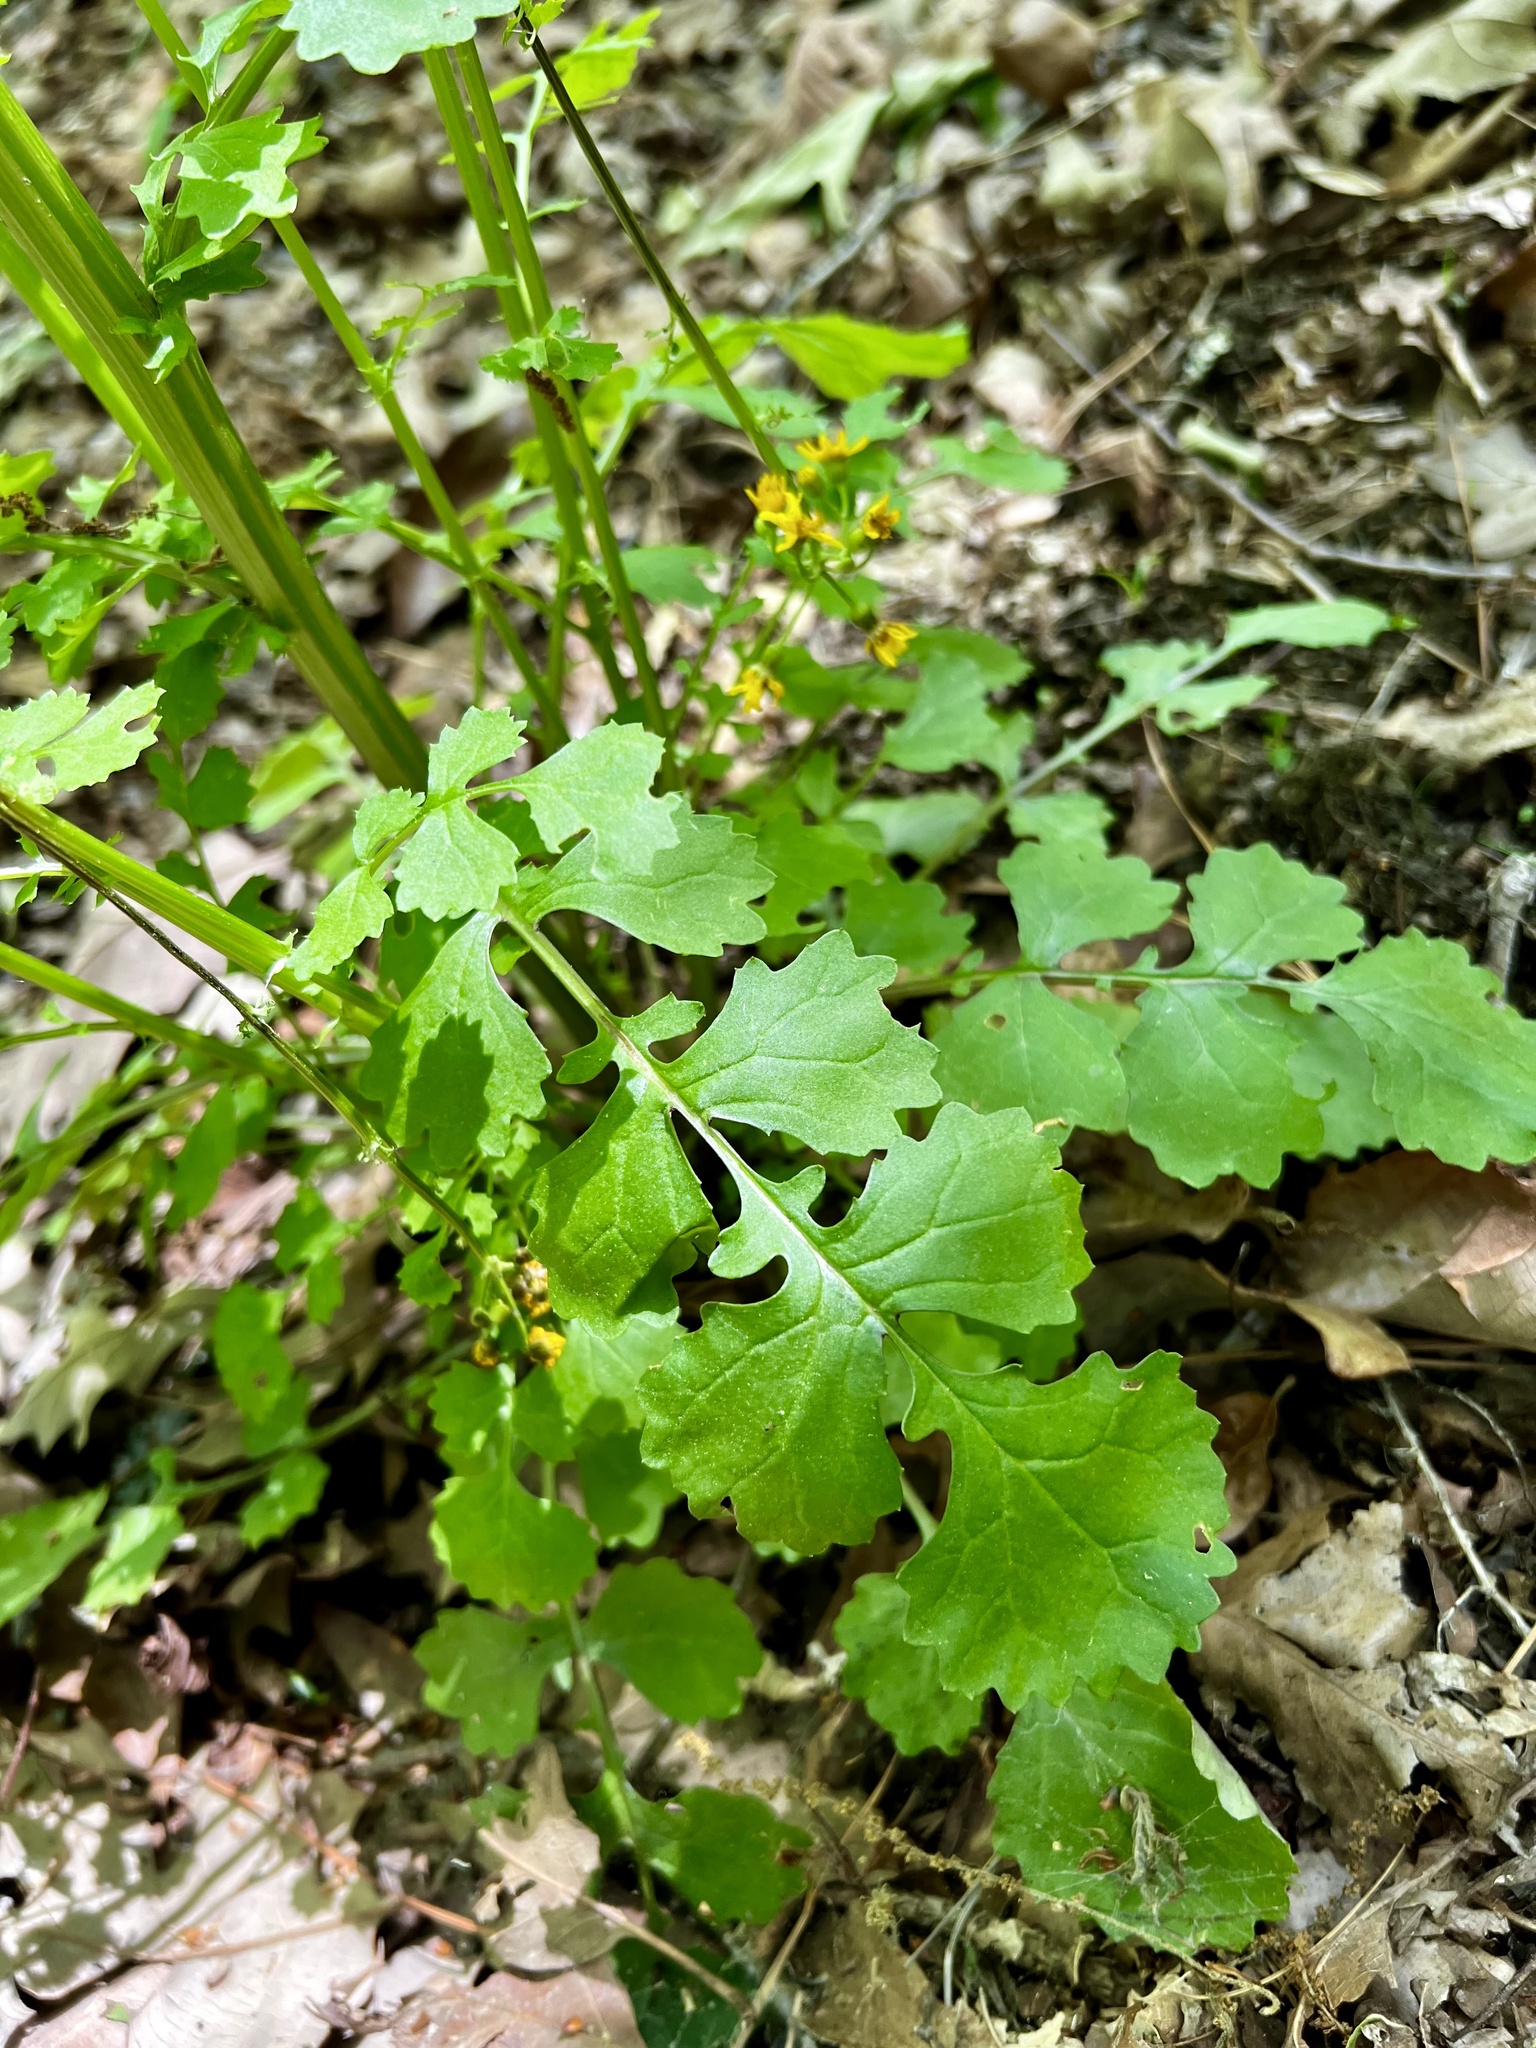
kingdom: Plantae
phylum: Tracheophyta
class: Magnoliopsida
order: Asterales
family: Asteraceae
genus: Packera
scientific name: Packera glabella
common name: Butterweed
